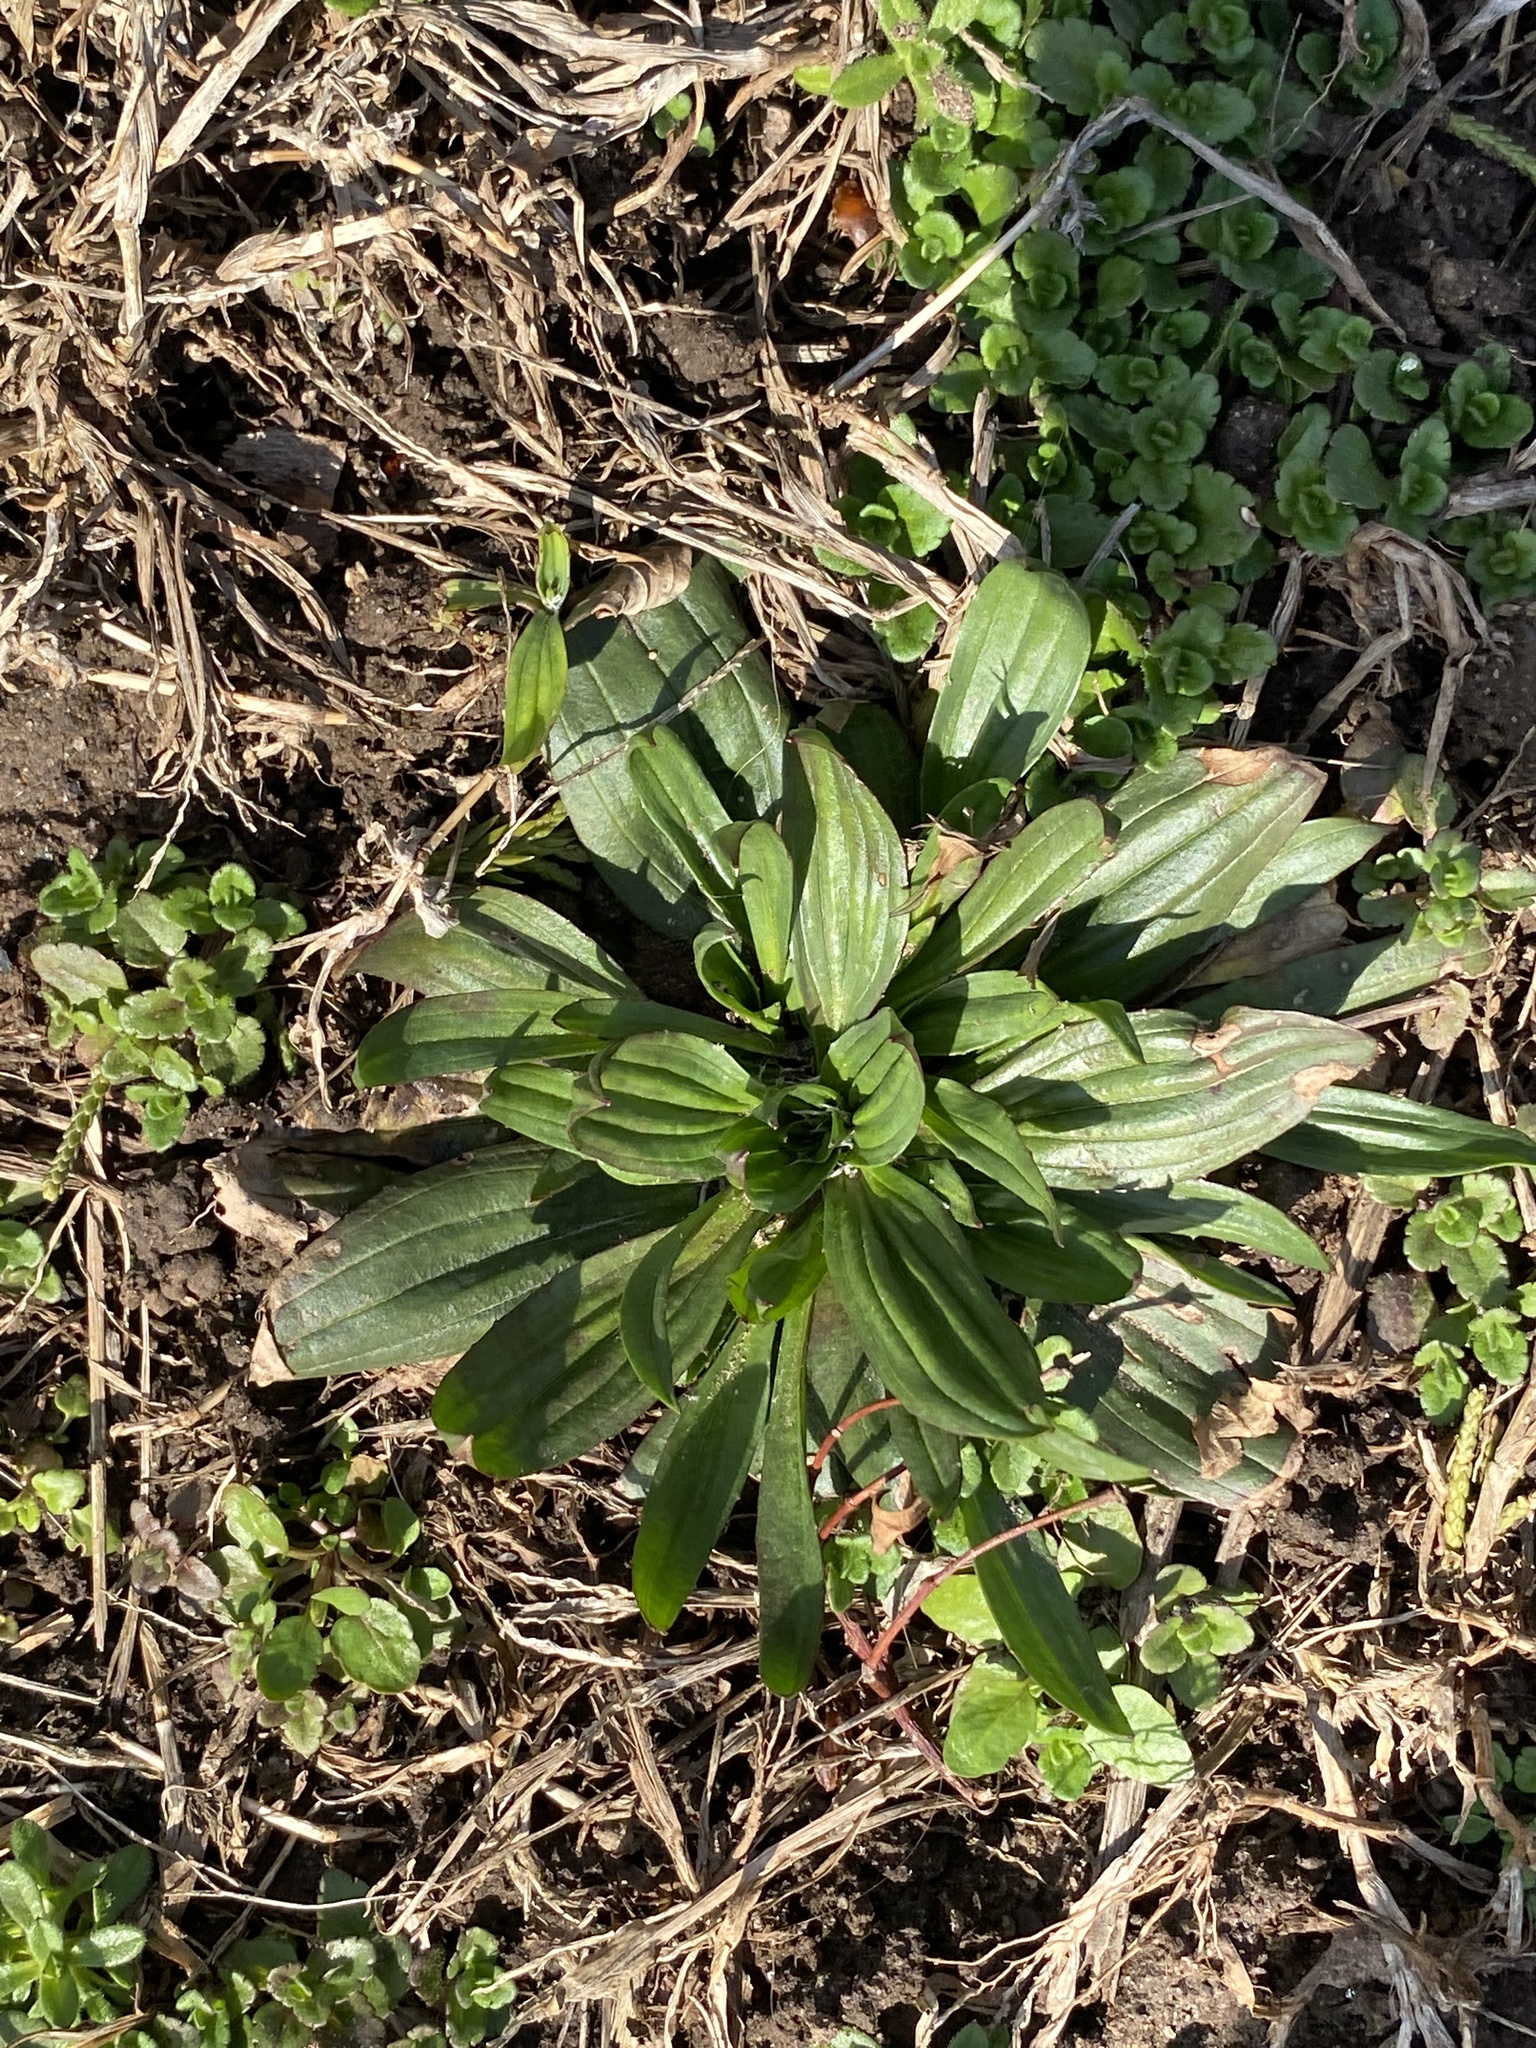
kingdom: Plantae
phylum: Tracheophyta
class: Magnoliopsida
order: Lamiales
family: Plantaginaceae
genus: Plantago
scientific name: Plantago lanceolata
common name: Ribwort plantain
